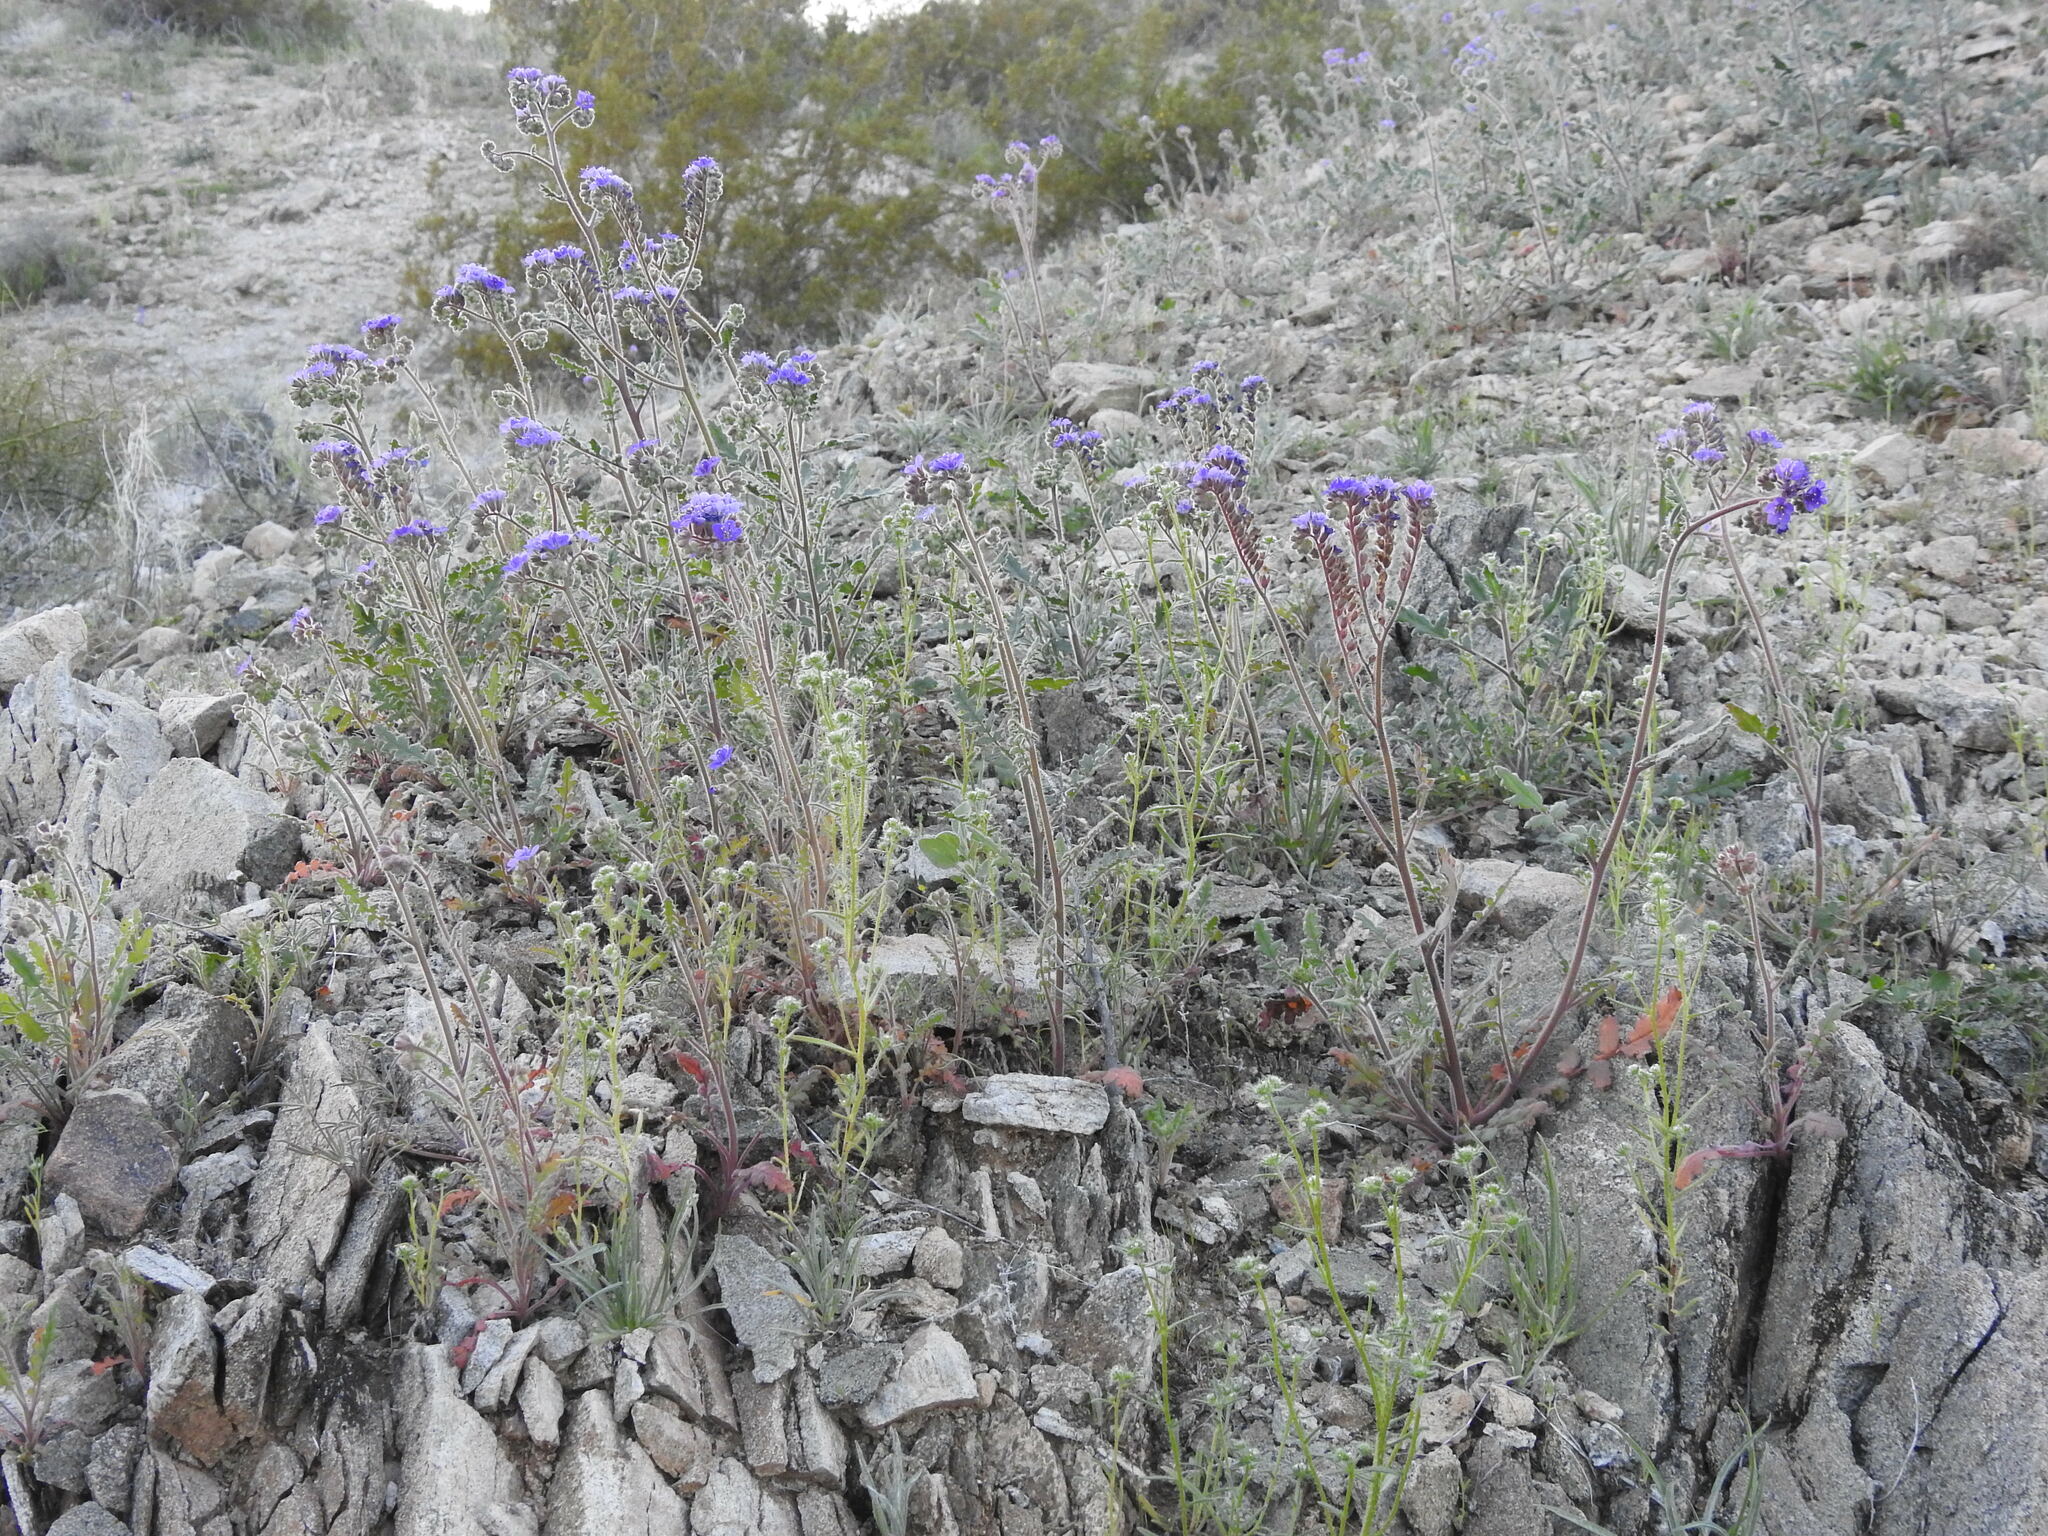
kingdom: Plantae
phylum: Tracheophyta
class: Magnoliopsida
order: Boraginales
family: Hydrophyllaceae
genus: Phacelia
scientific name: Phacelia crenulata
